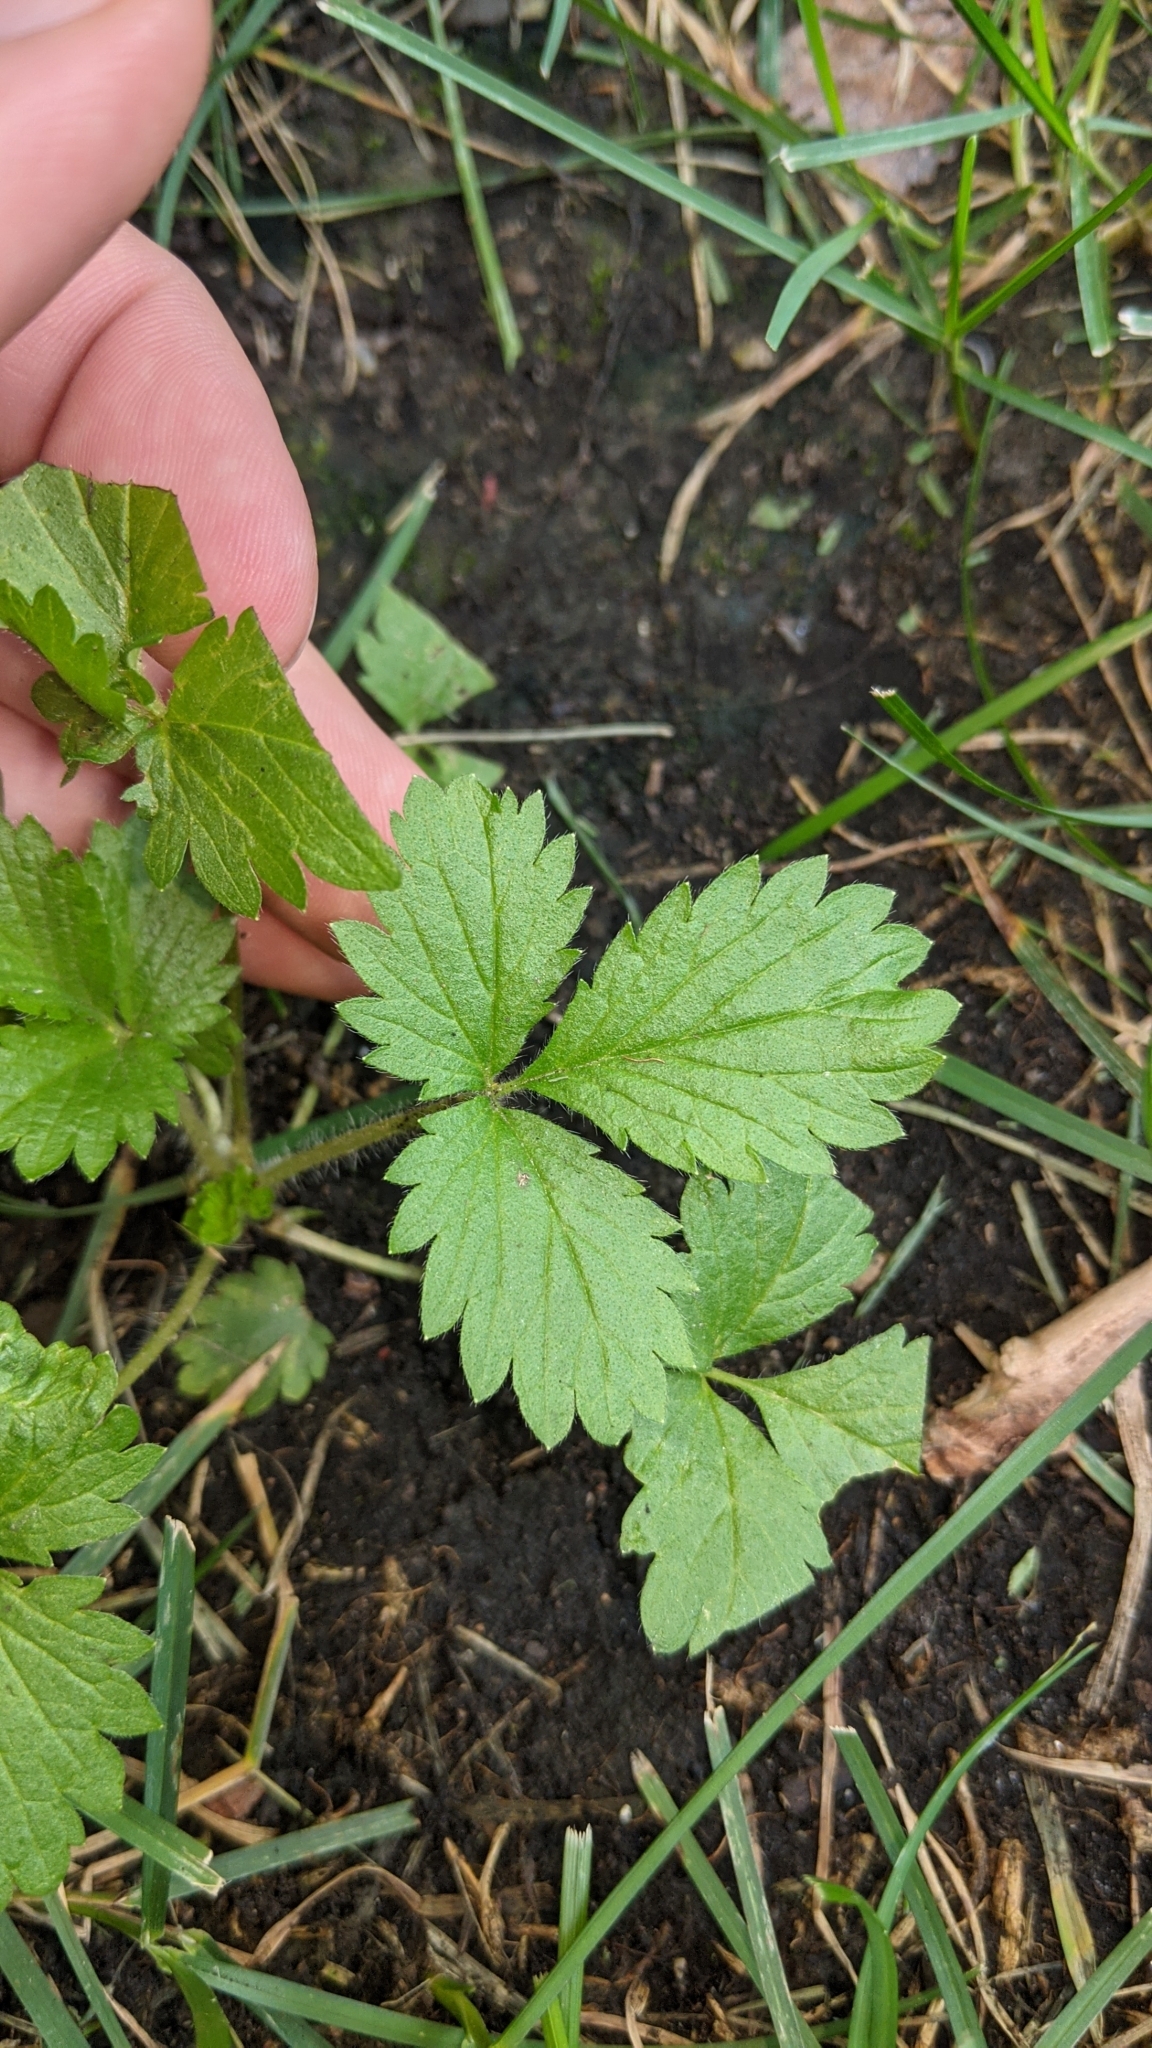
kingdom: Plantae
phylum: Tracheophyta
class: Magnoliopsida
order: Rosales
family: Rosaceae
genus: Potentilla
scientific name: Potentilla norvegica
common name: Ternate-leaved cinquefoil
